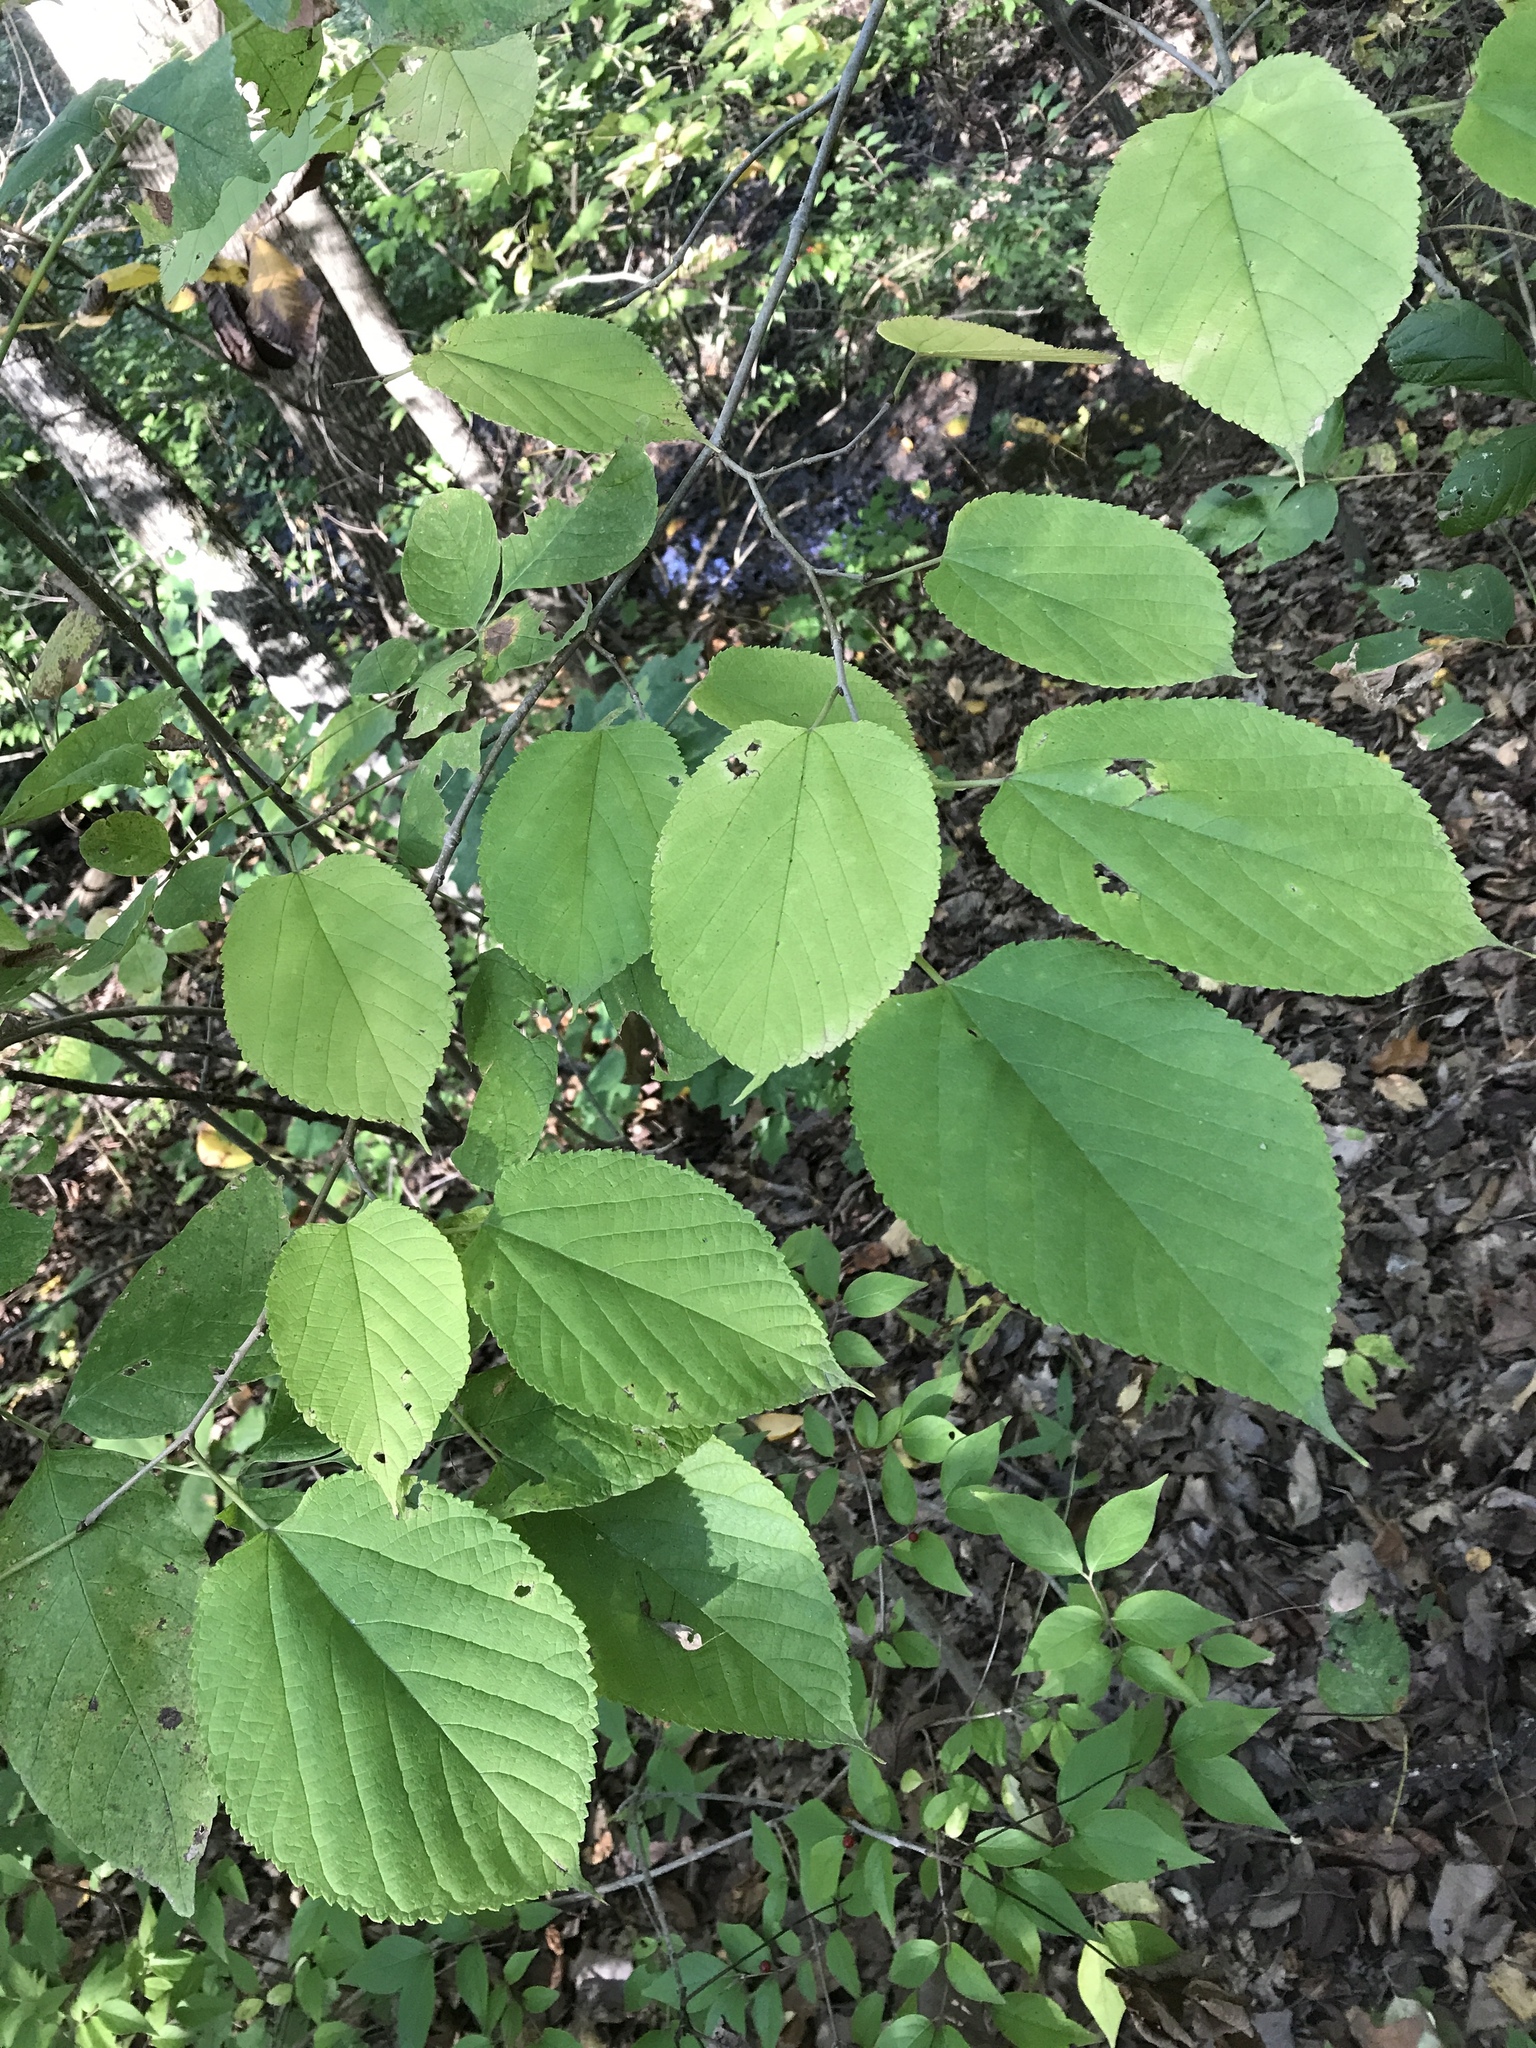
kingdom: Plantae
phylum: Tracheophyta
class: Magnoliopsida
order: Malvales
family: Malvaceae
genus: Tilia
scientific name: Tilia americana
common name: Basswood
